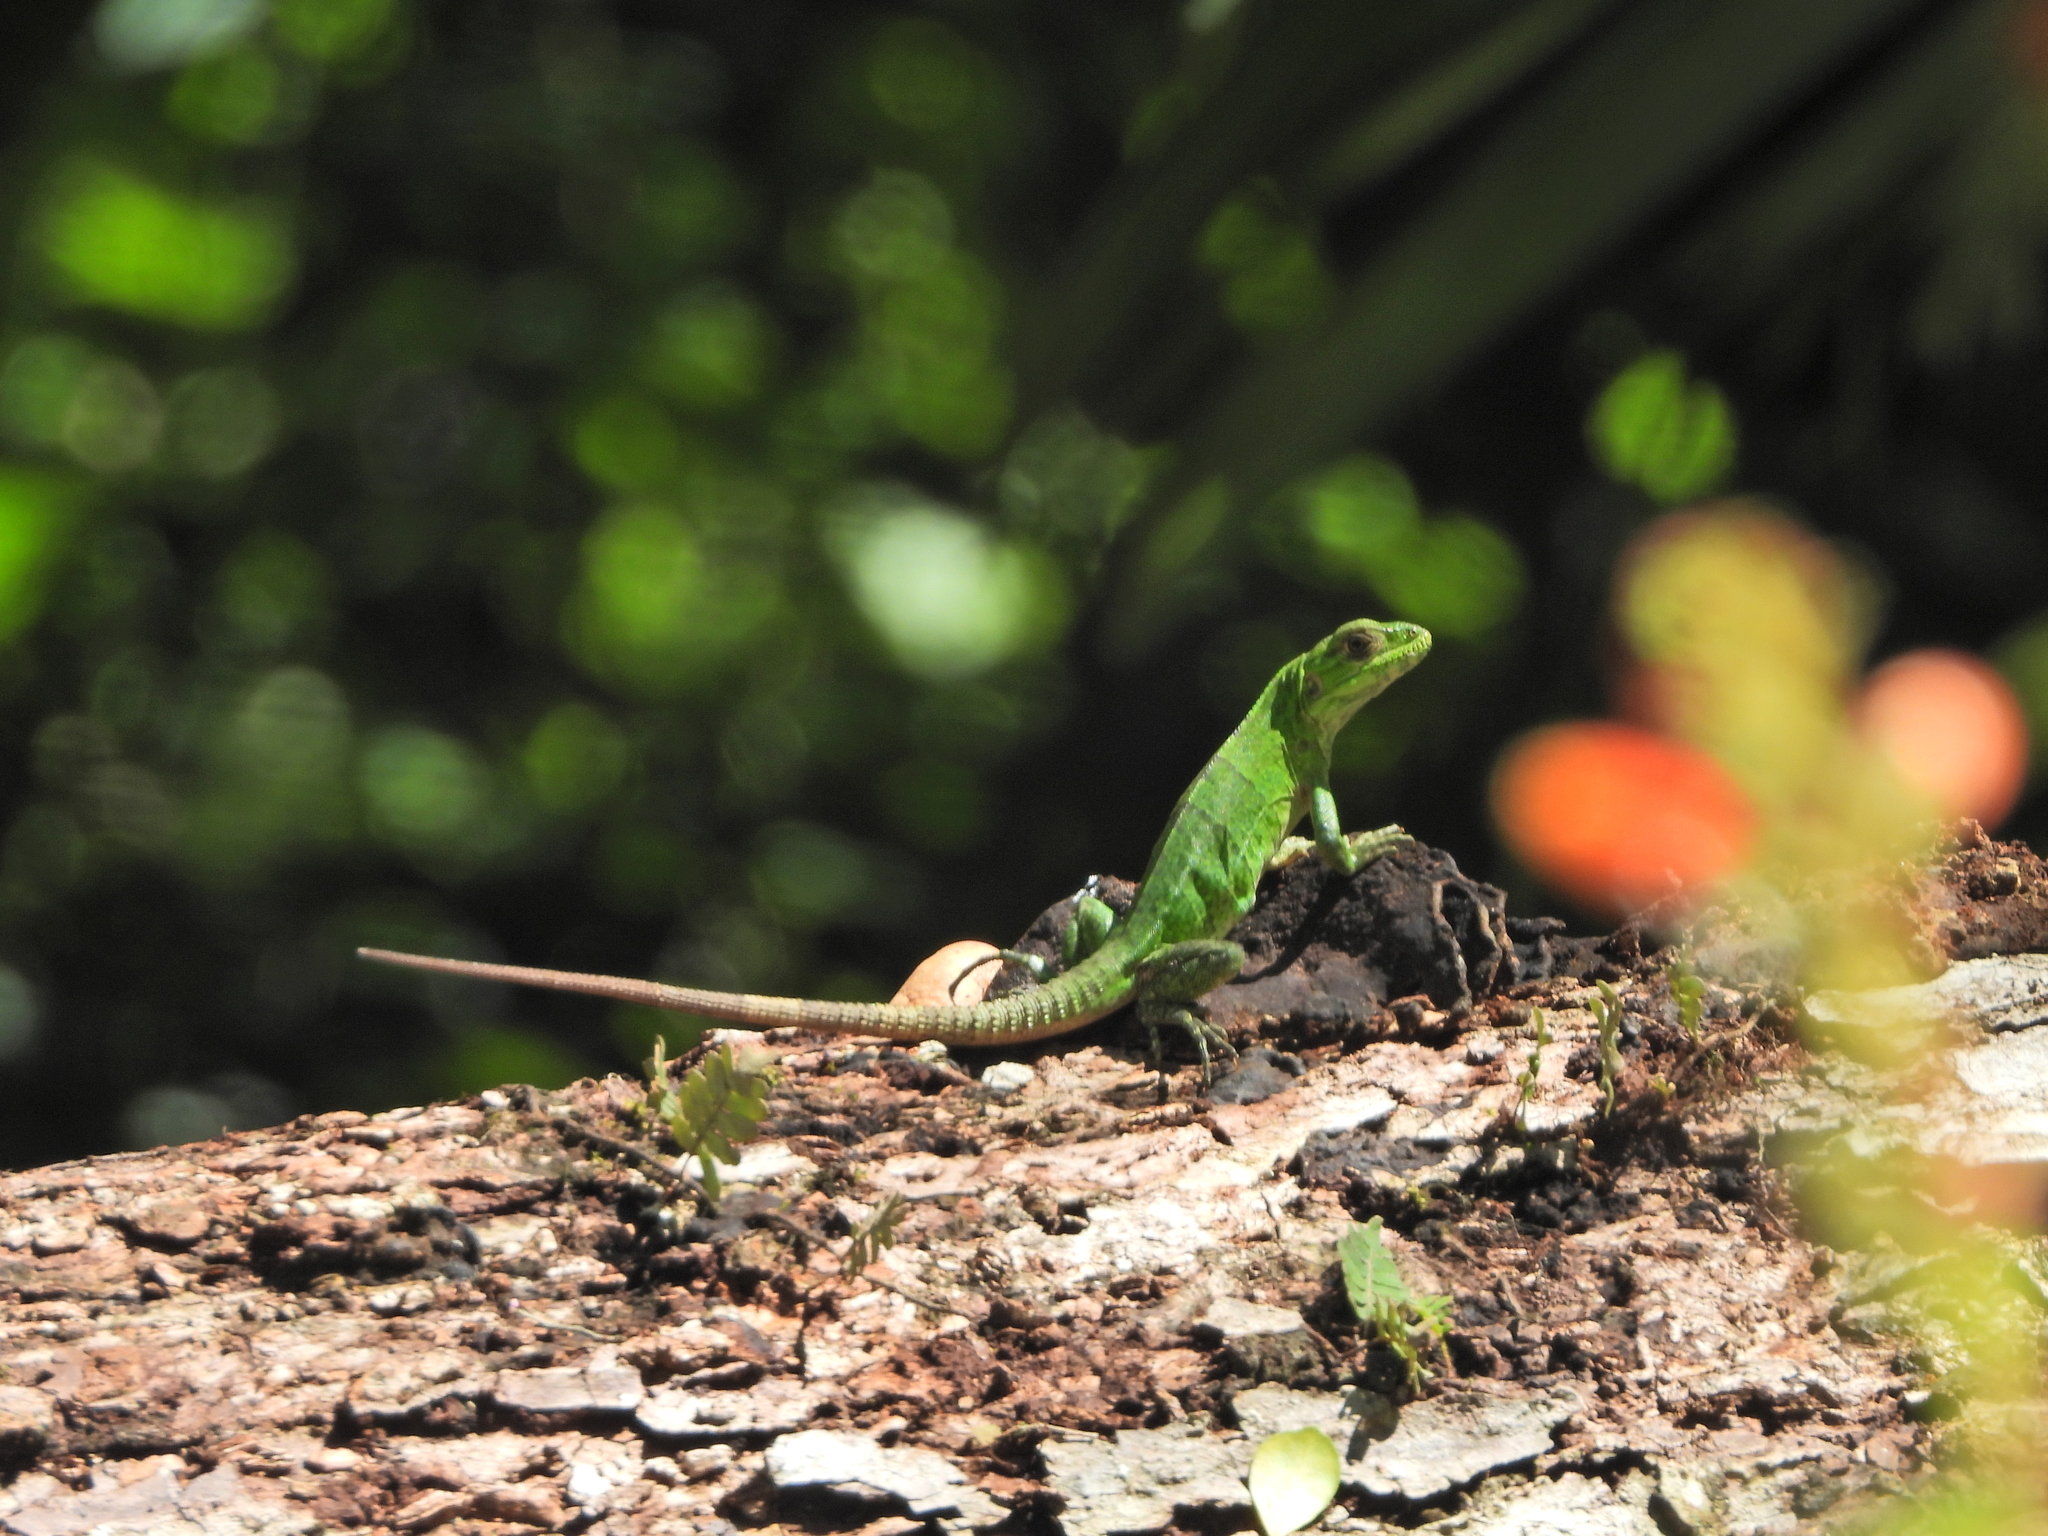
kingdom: Animalia
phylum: Chordata
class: Squamata
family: Iguanidae
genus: Ctenosaura
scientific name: Ctenosaura similis
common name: Black spiny-tailed iguana
